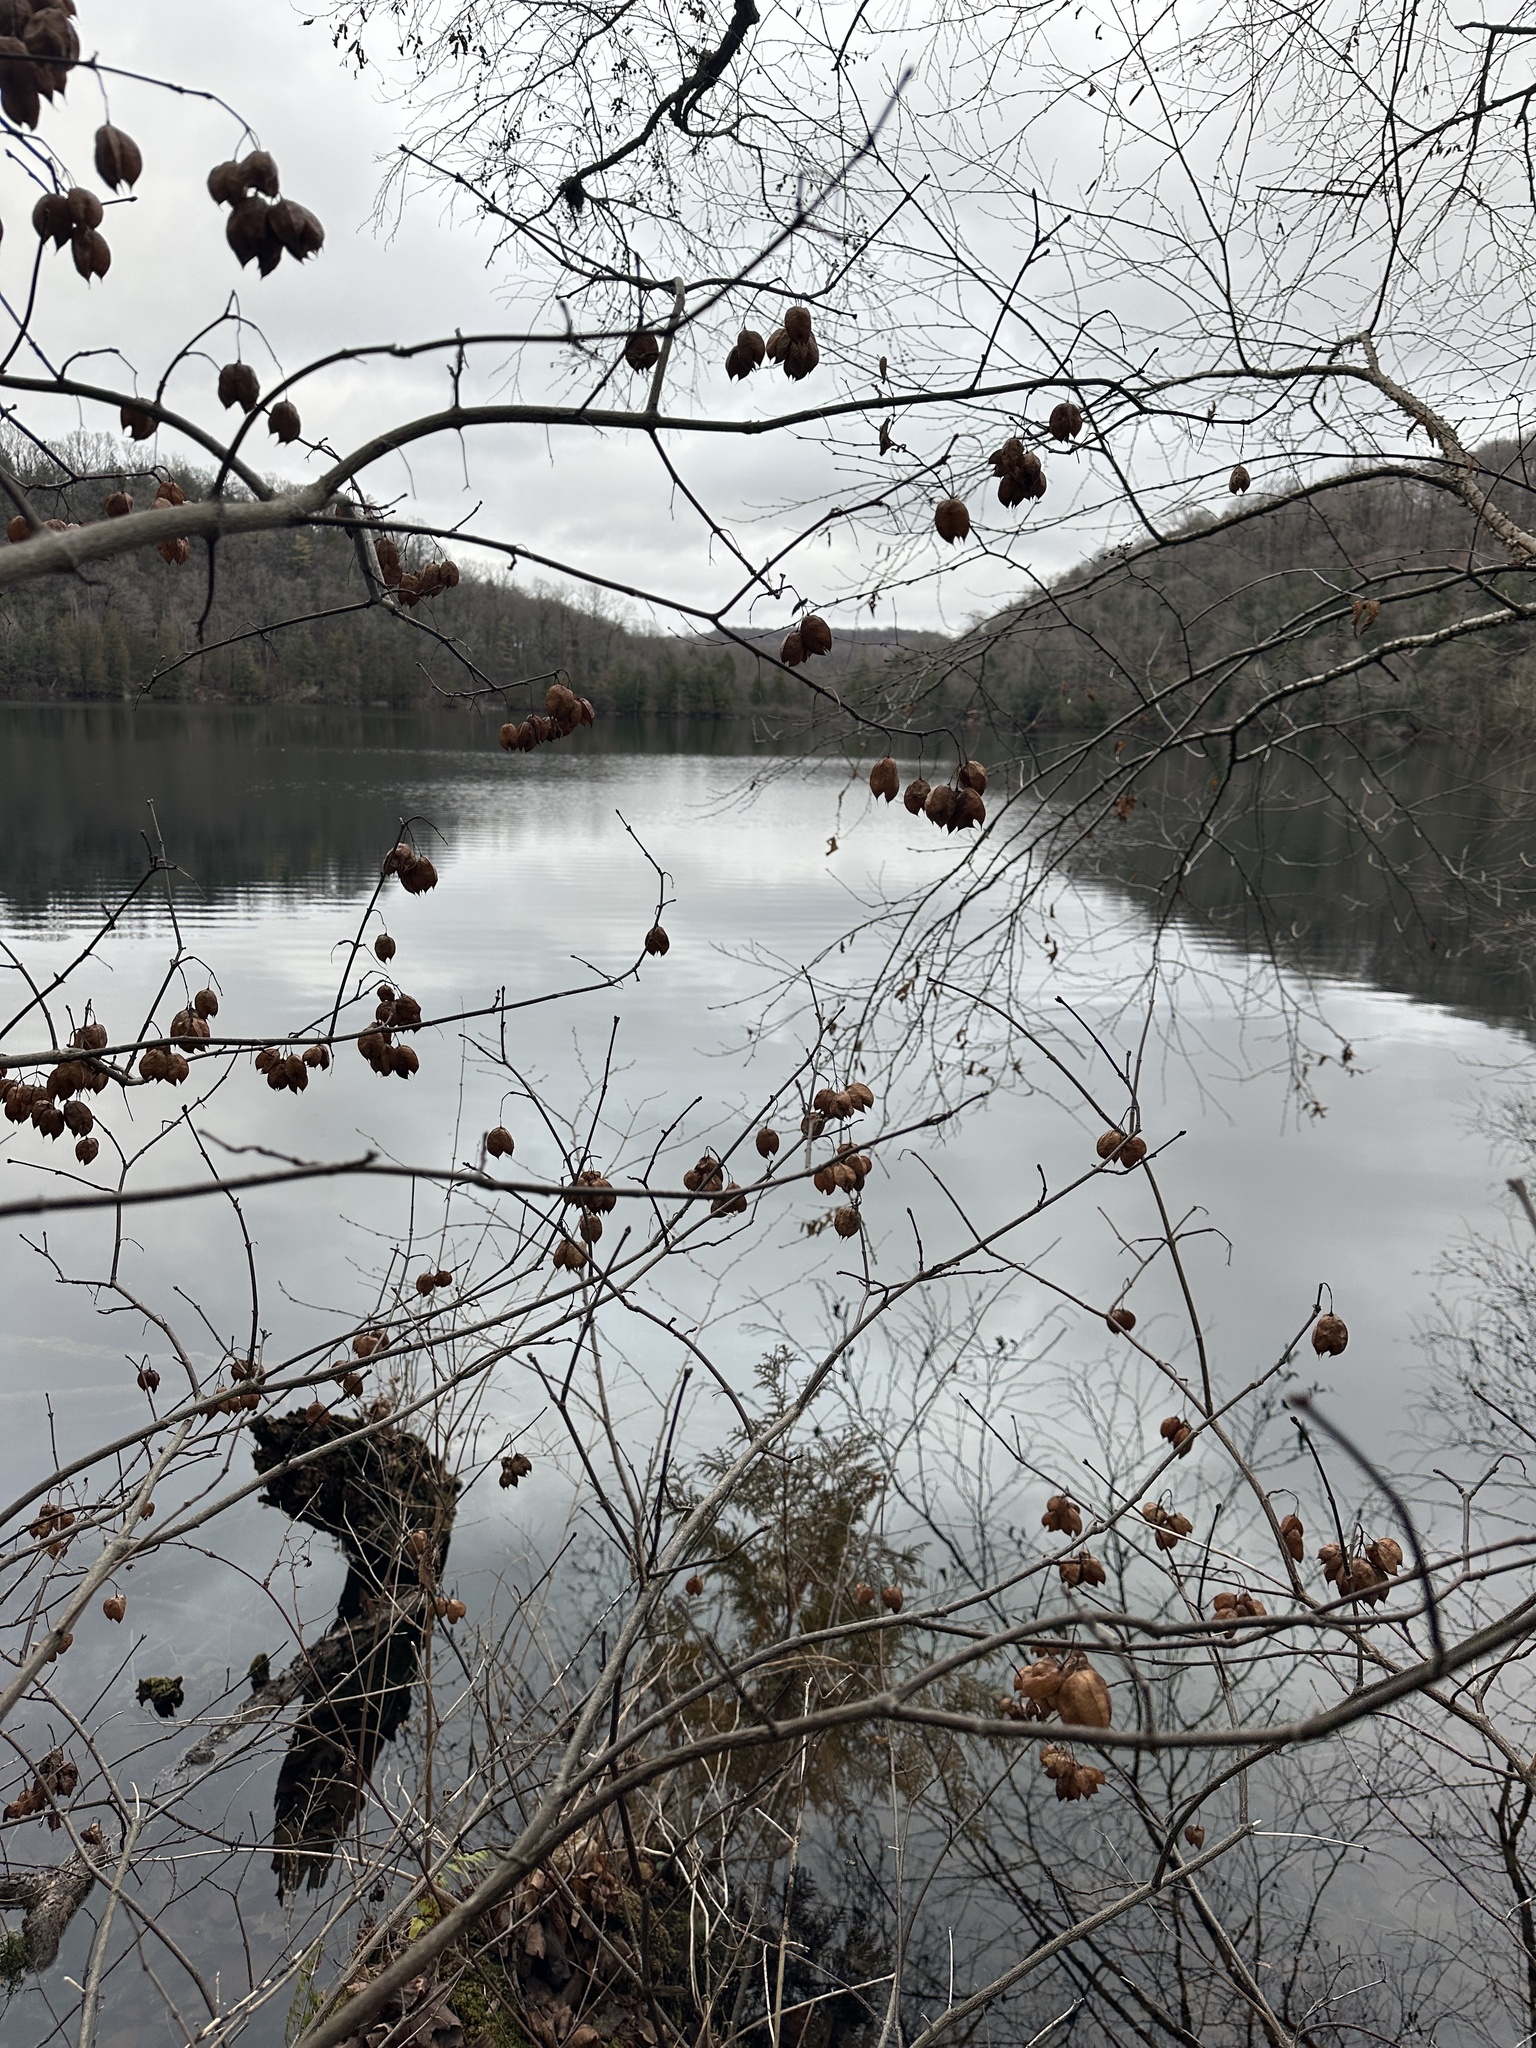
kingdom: Plantae
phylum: Tracheophyta
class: Magnoliopsida
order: Crossosomatales
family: Staphyleaceae
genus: Staphylea
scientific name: Staphylea trifolia
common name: American bladdernut
